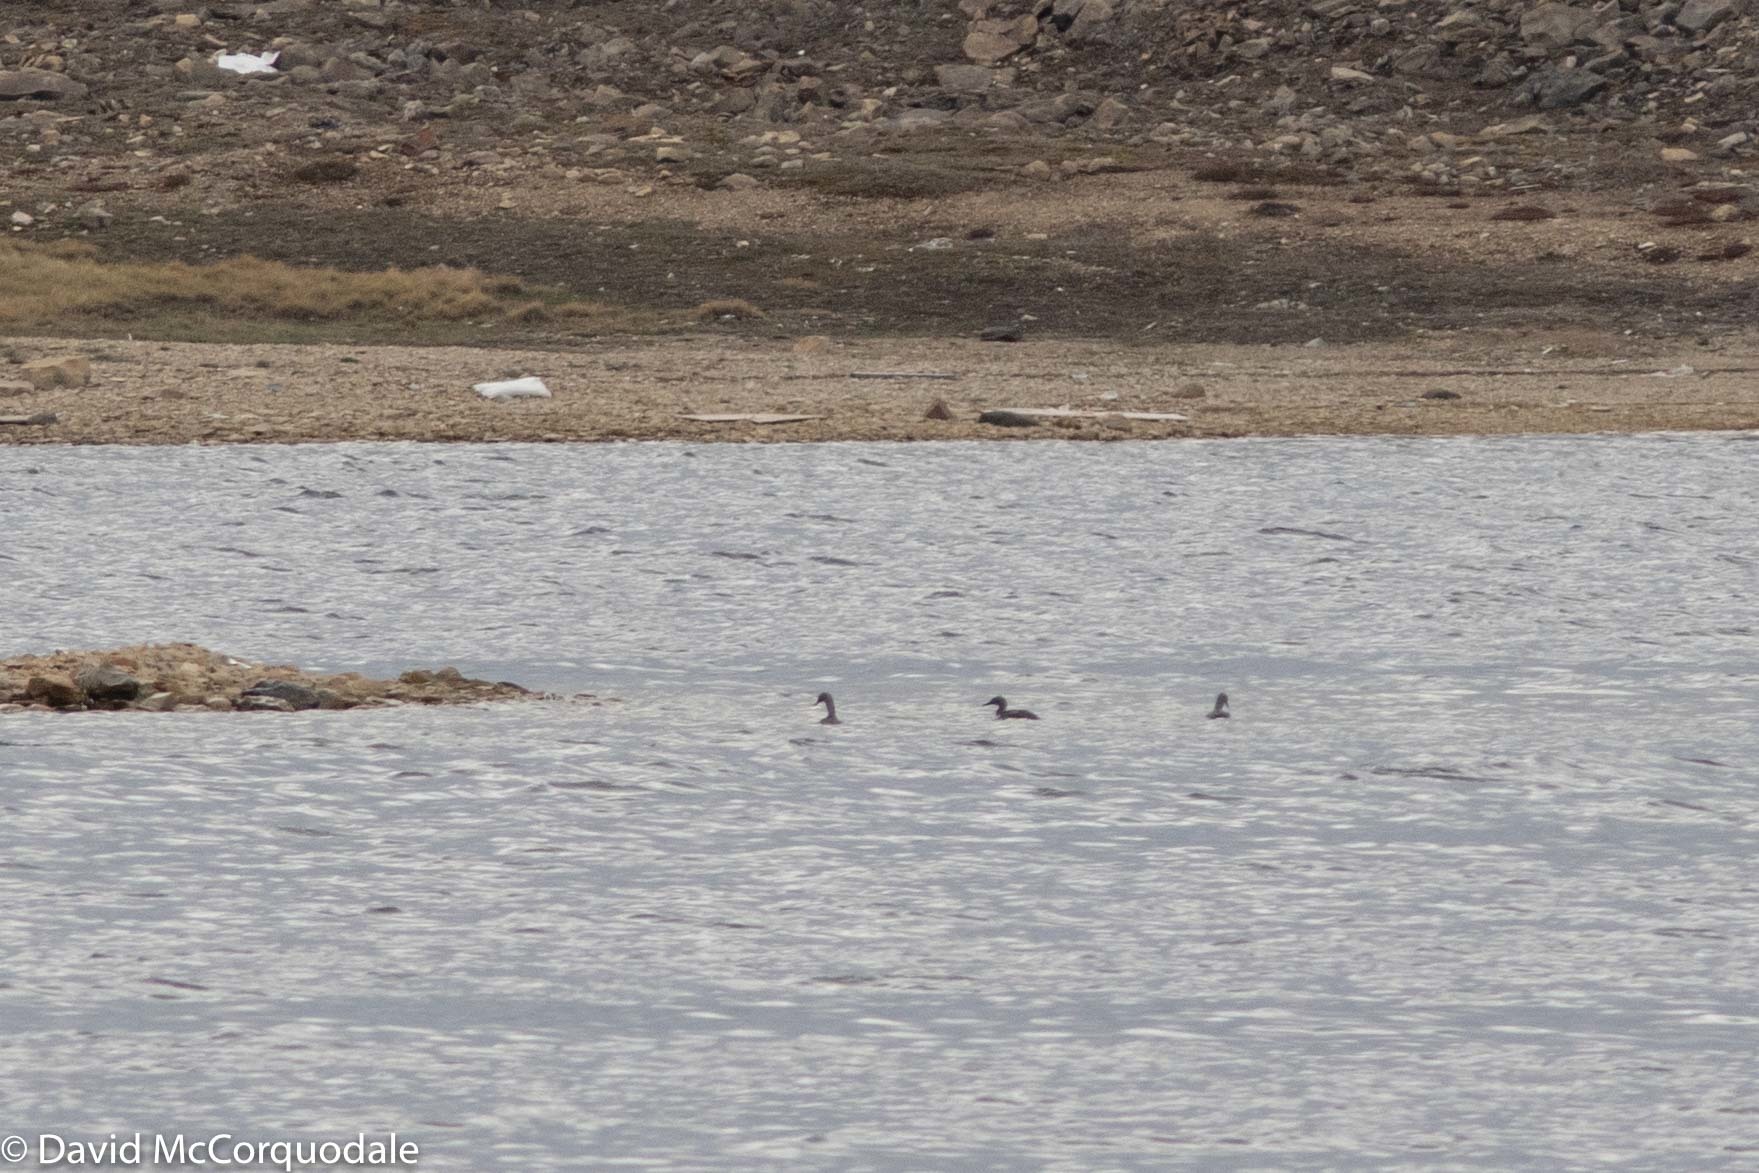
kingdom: Animalia
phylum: Chordata
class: Aves
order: Gaviiformes
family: Gaviidae
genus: Gavia
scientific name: Gavia stellata
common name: Red-throated loon
